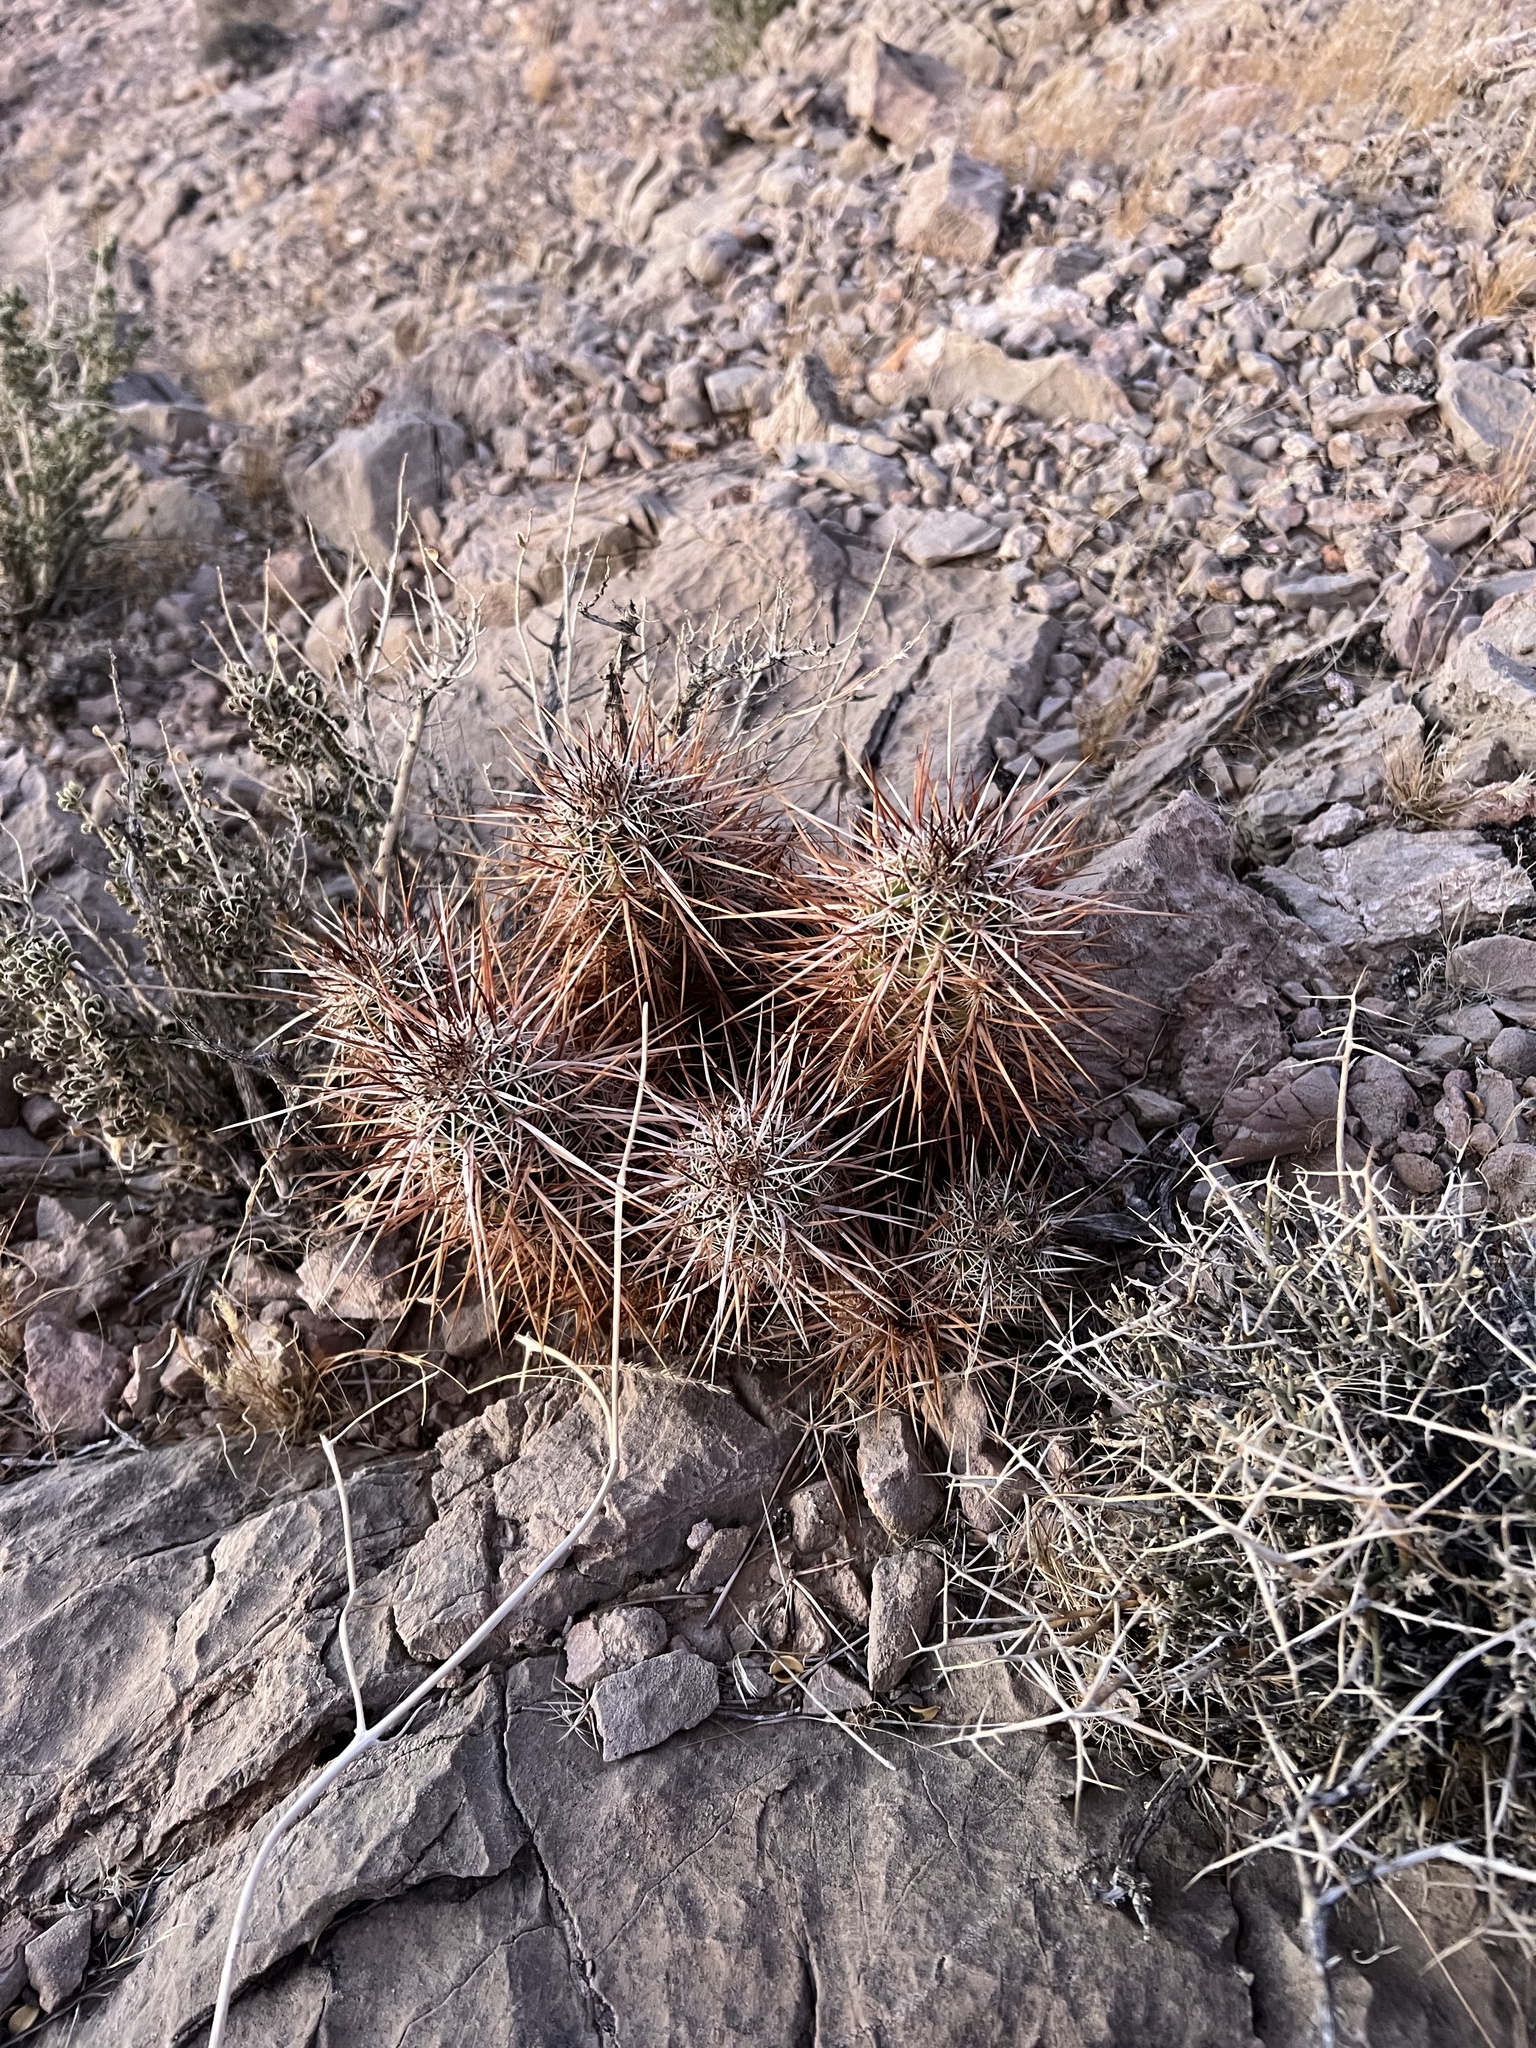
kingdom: Plantae
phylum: Tracheophyta
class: Magnoliopsida
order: Caryophyllales
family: Cactaceae
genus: Echinocereus
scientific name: Echinocereus engelmannii
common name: Engelmann's hedgehog cactus
